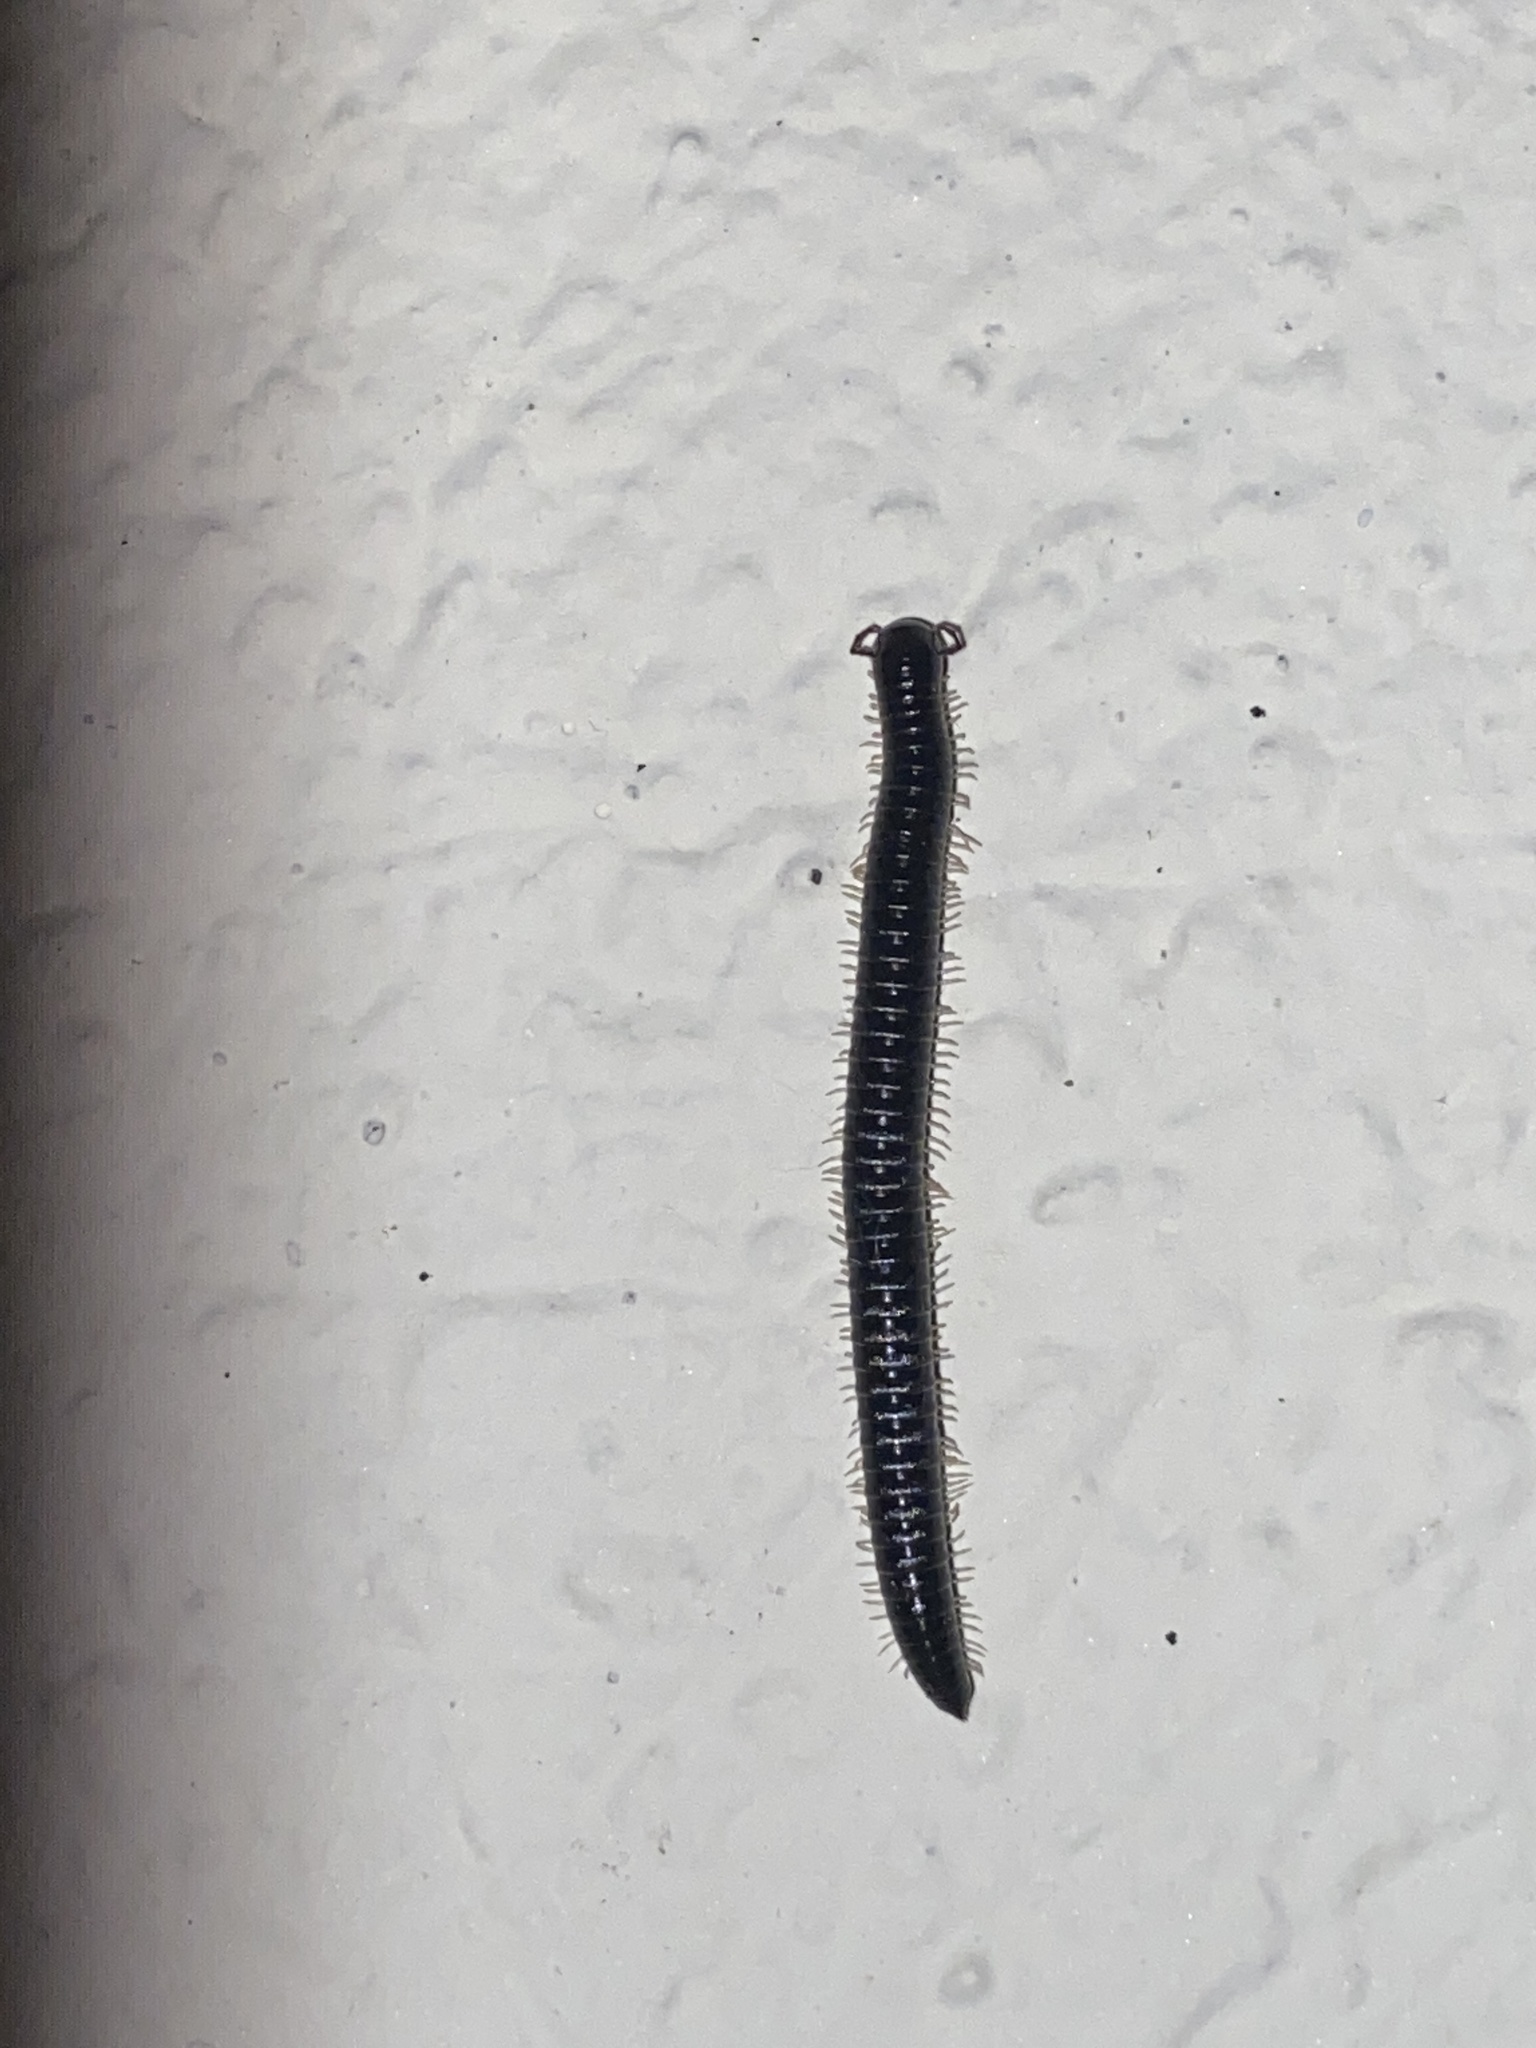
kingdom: Animalia
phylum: Arthropoda
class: Diplopoda
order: Julida
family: Julidae
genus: Tachypodoiulus
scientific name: Tachypodoiulus niger
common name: White-legged snake millipede
